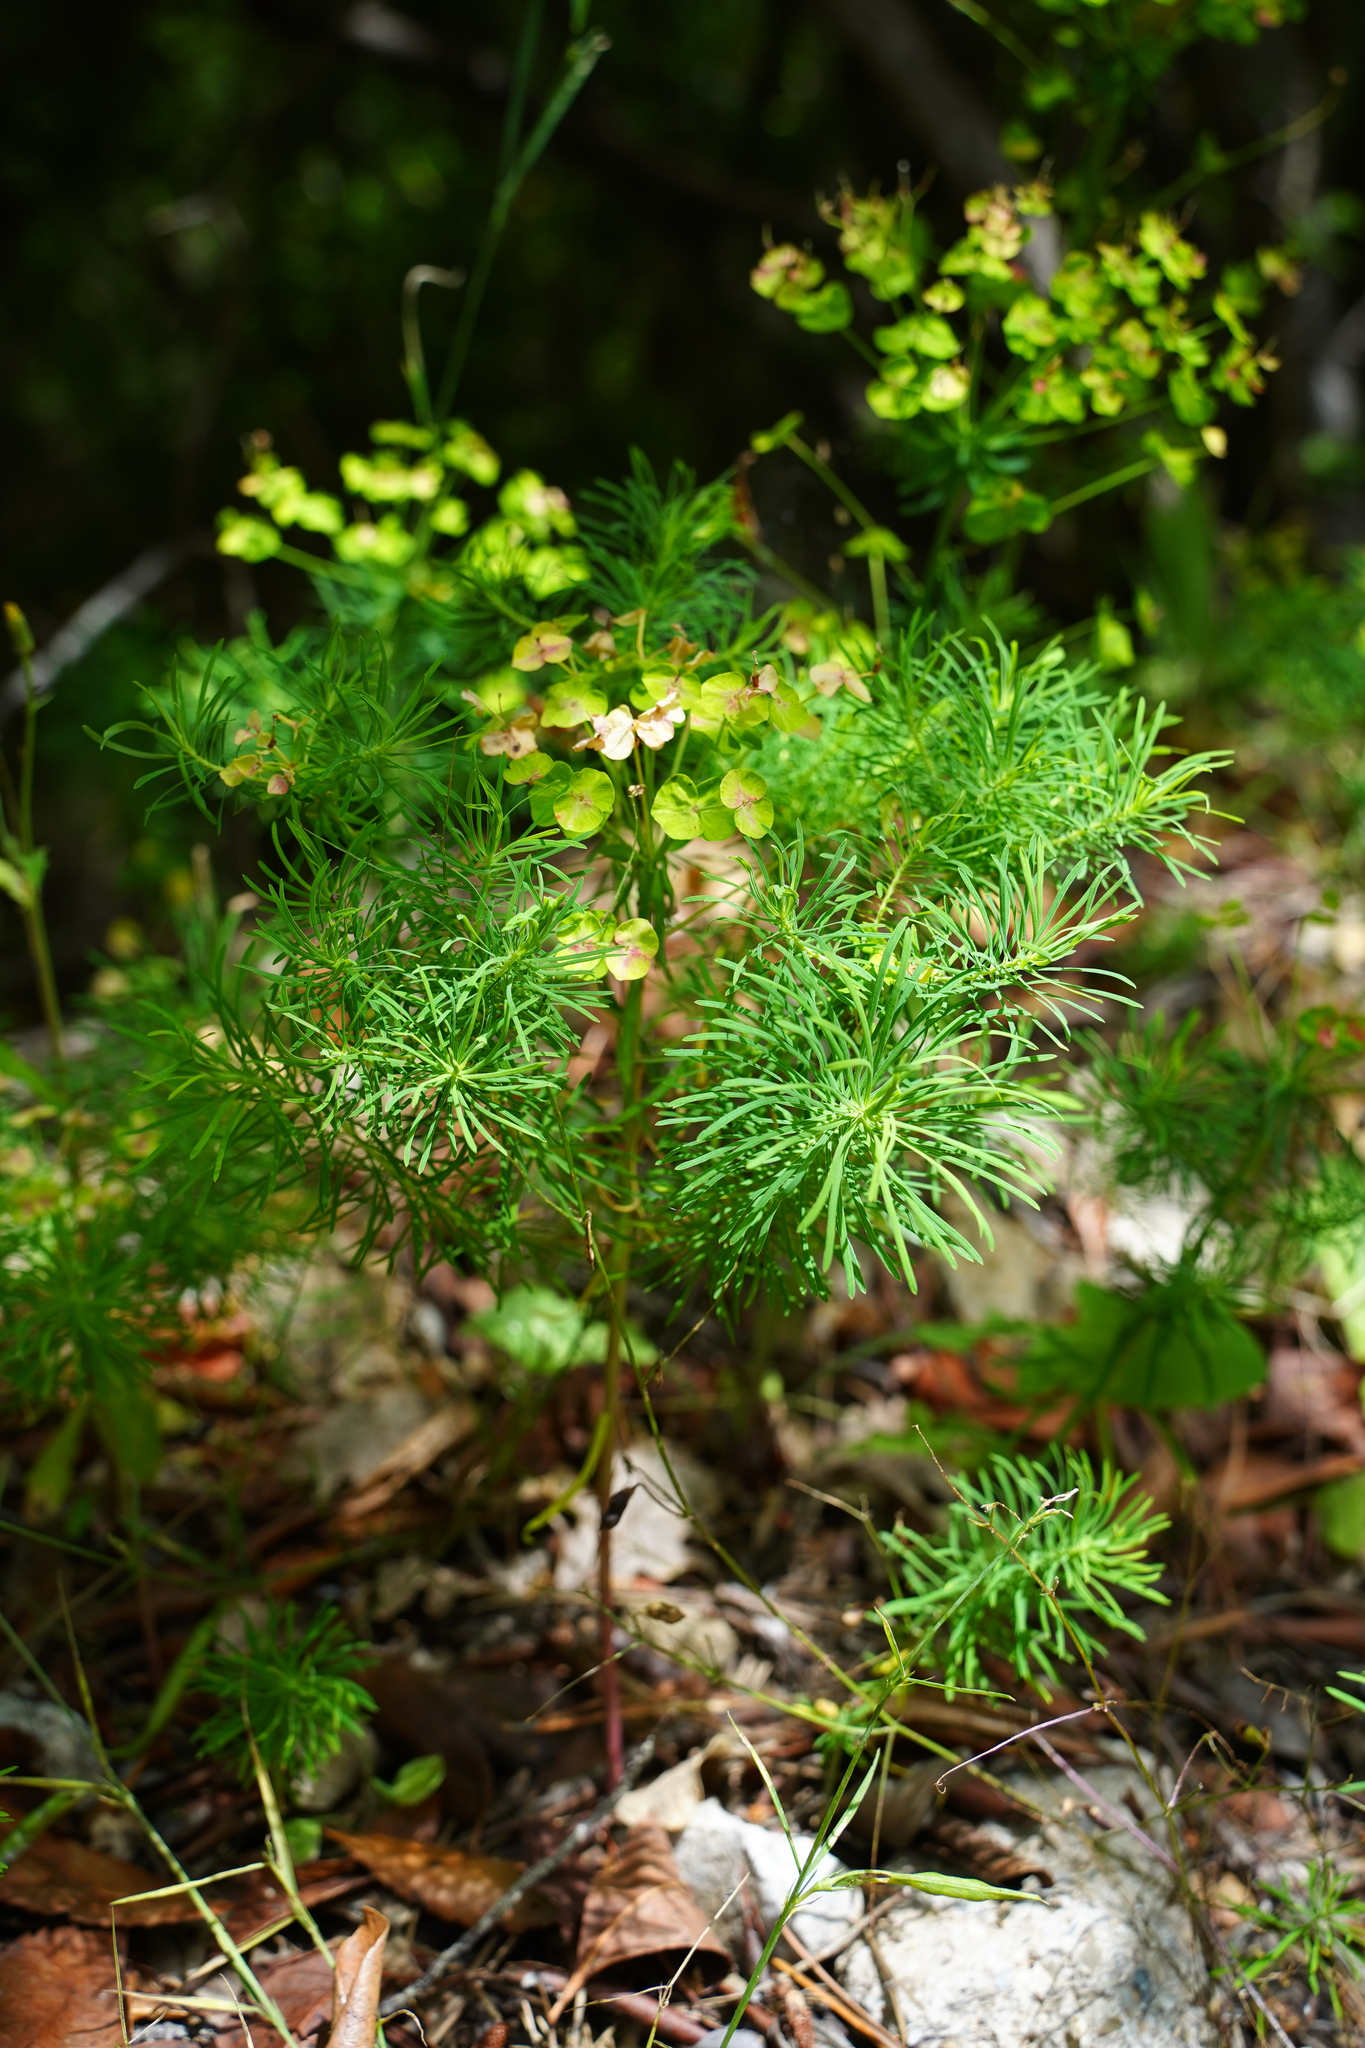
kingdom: Plantae
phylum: Tracheophyta
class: Magnoliopsida
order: Malpighiales
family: Euphorbiaceae
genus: Euphorbia
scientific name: Euphorbia cyparissias
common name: Cypress spurge
